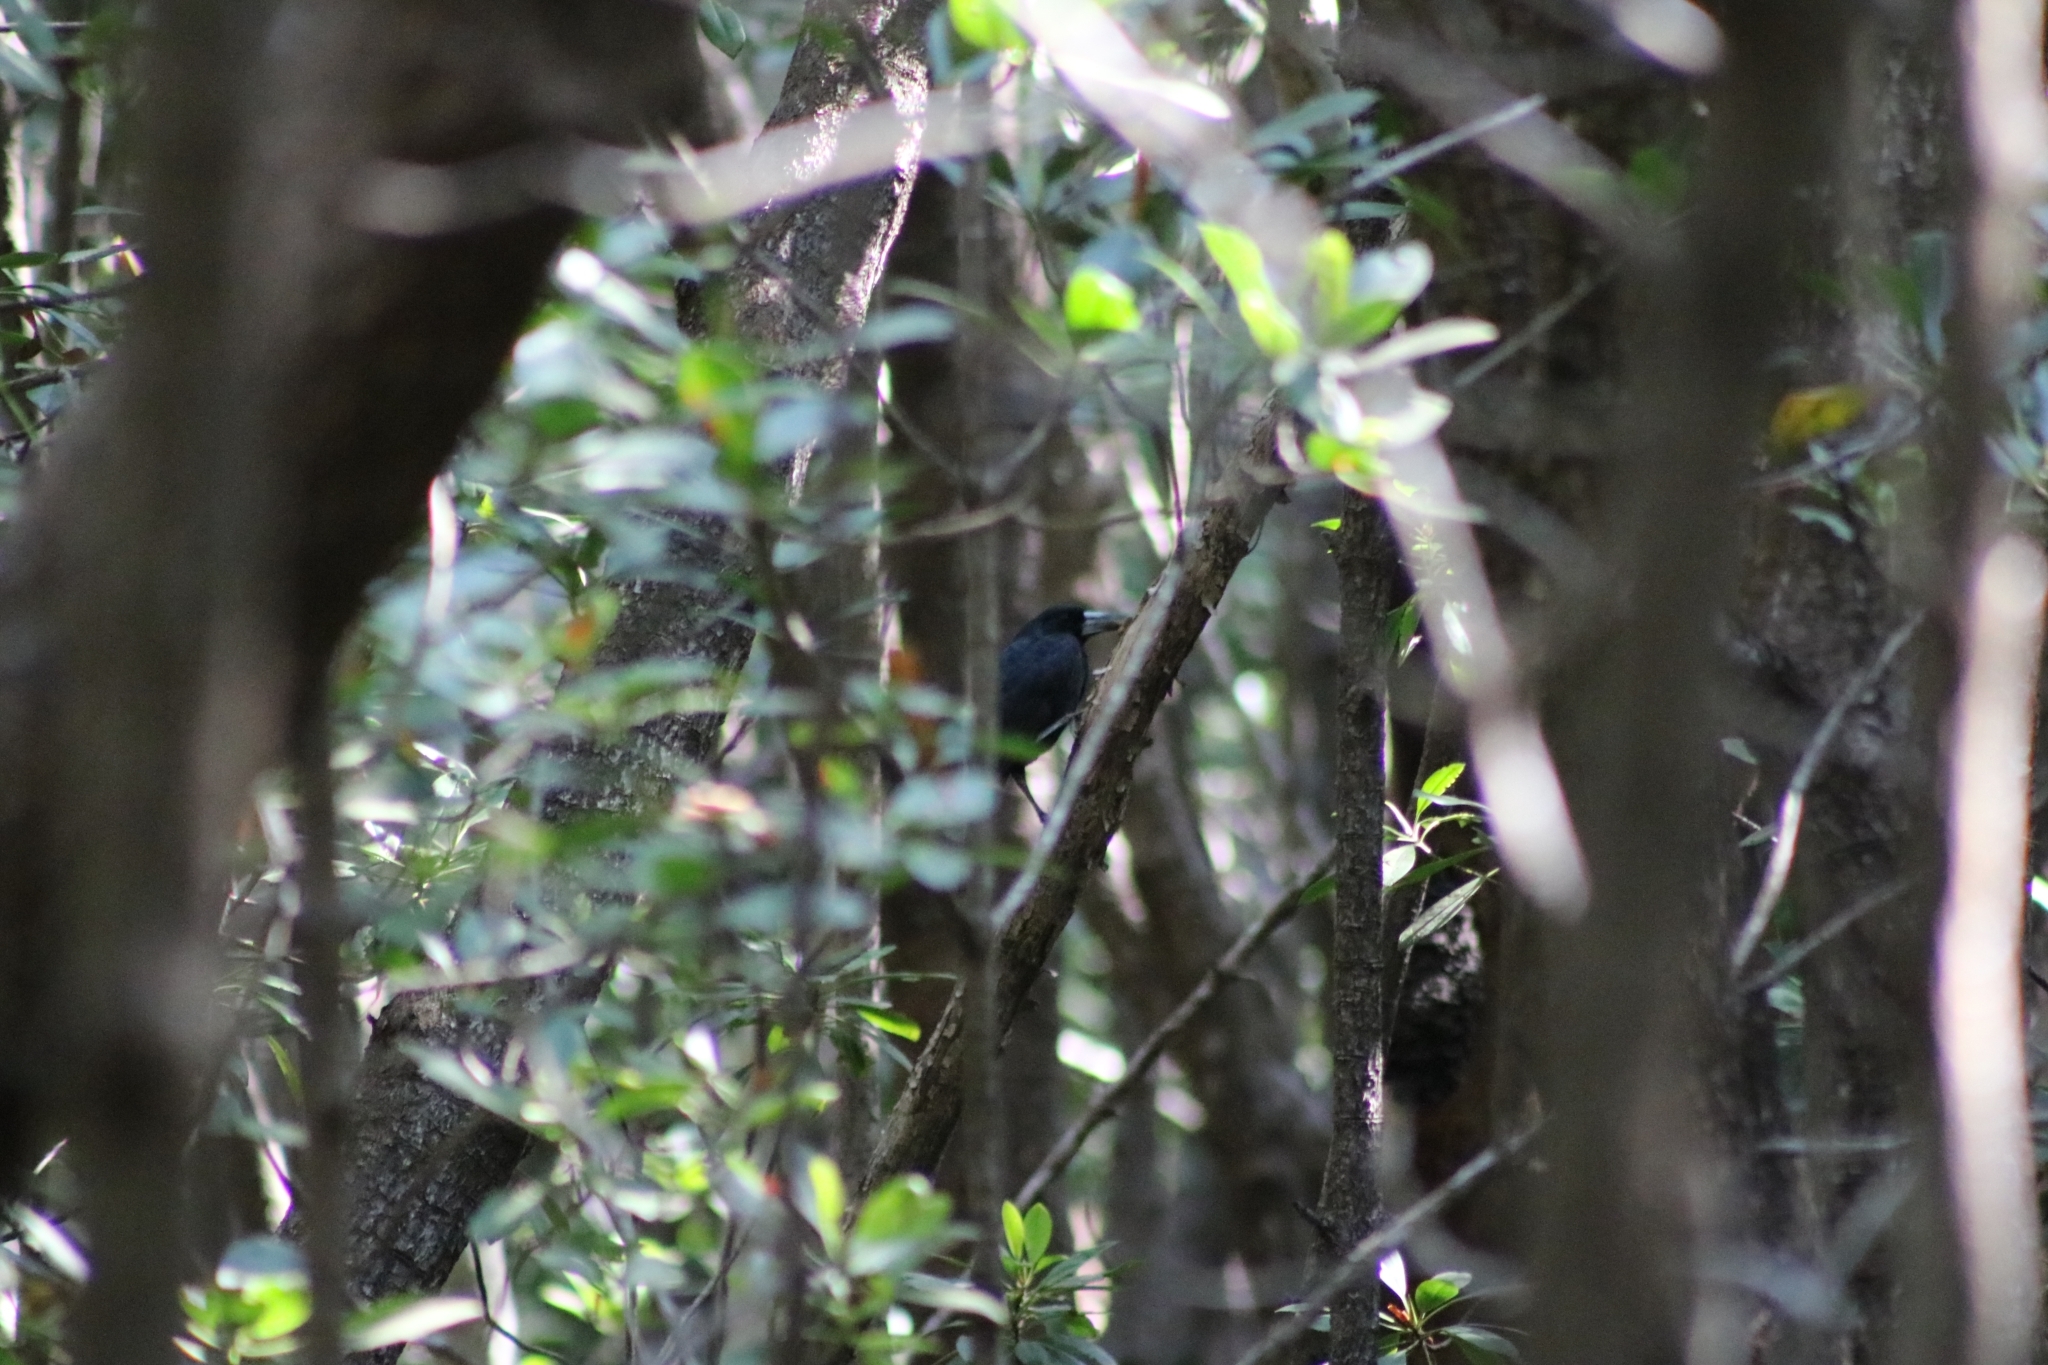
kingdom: Animalia
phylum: Chordata
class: Aves
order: Passeriformes
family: Artamidae
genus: Melloria
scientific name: Melloria quoyi
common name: Black butcherbird
